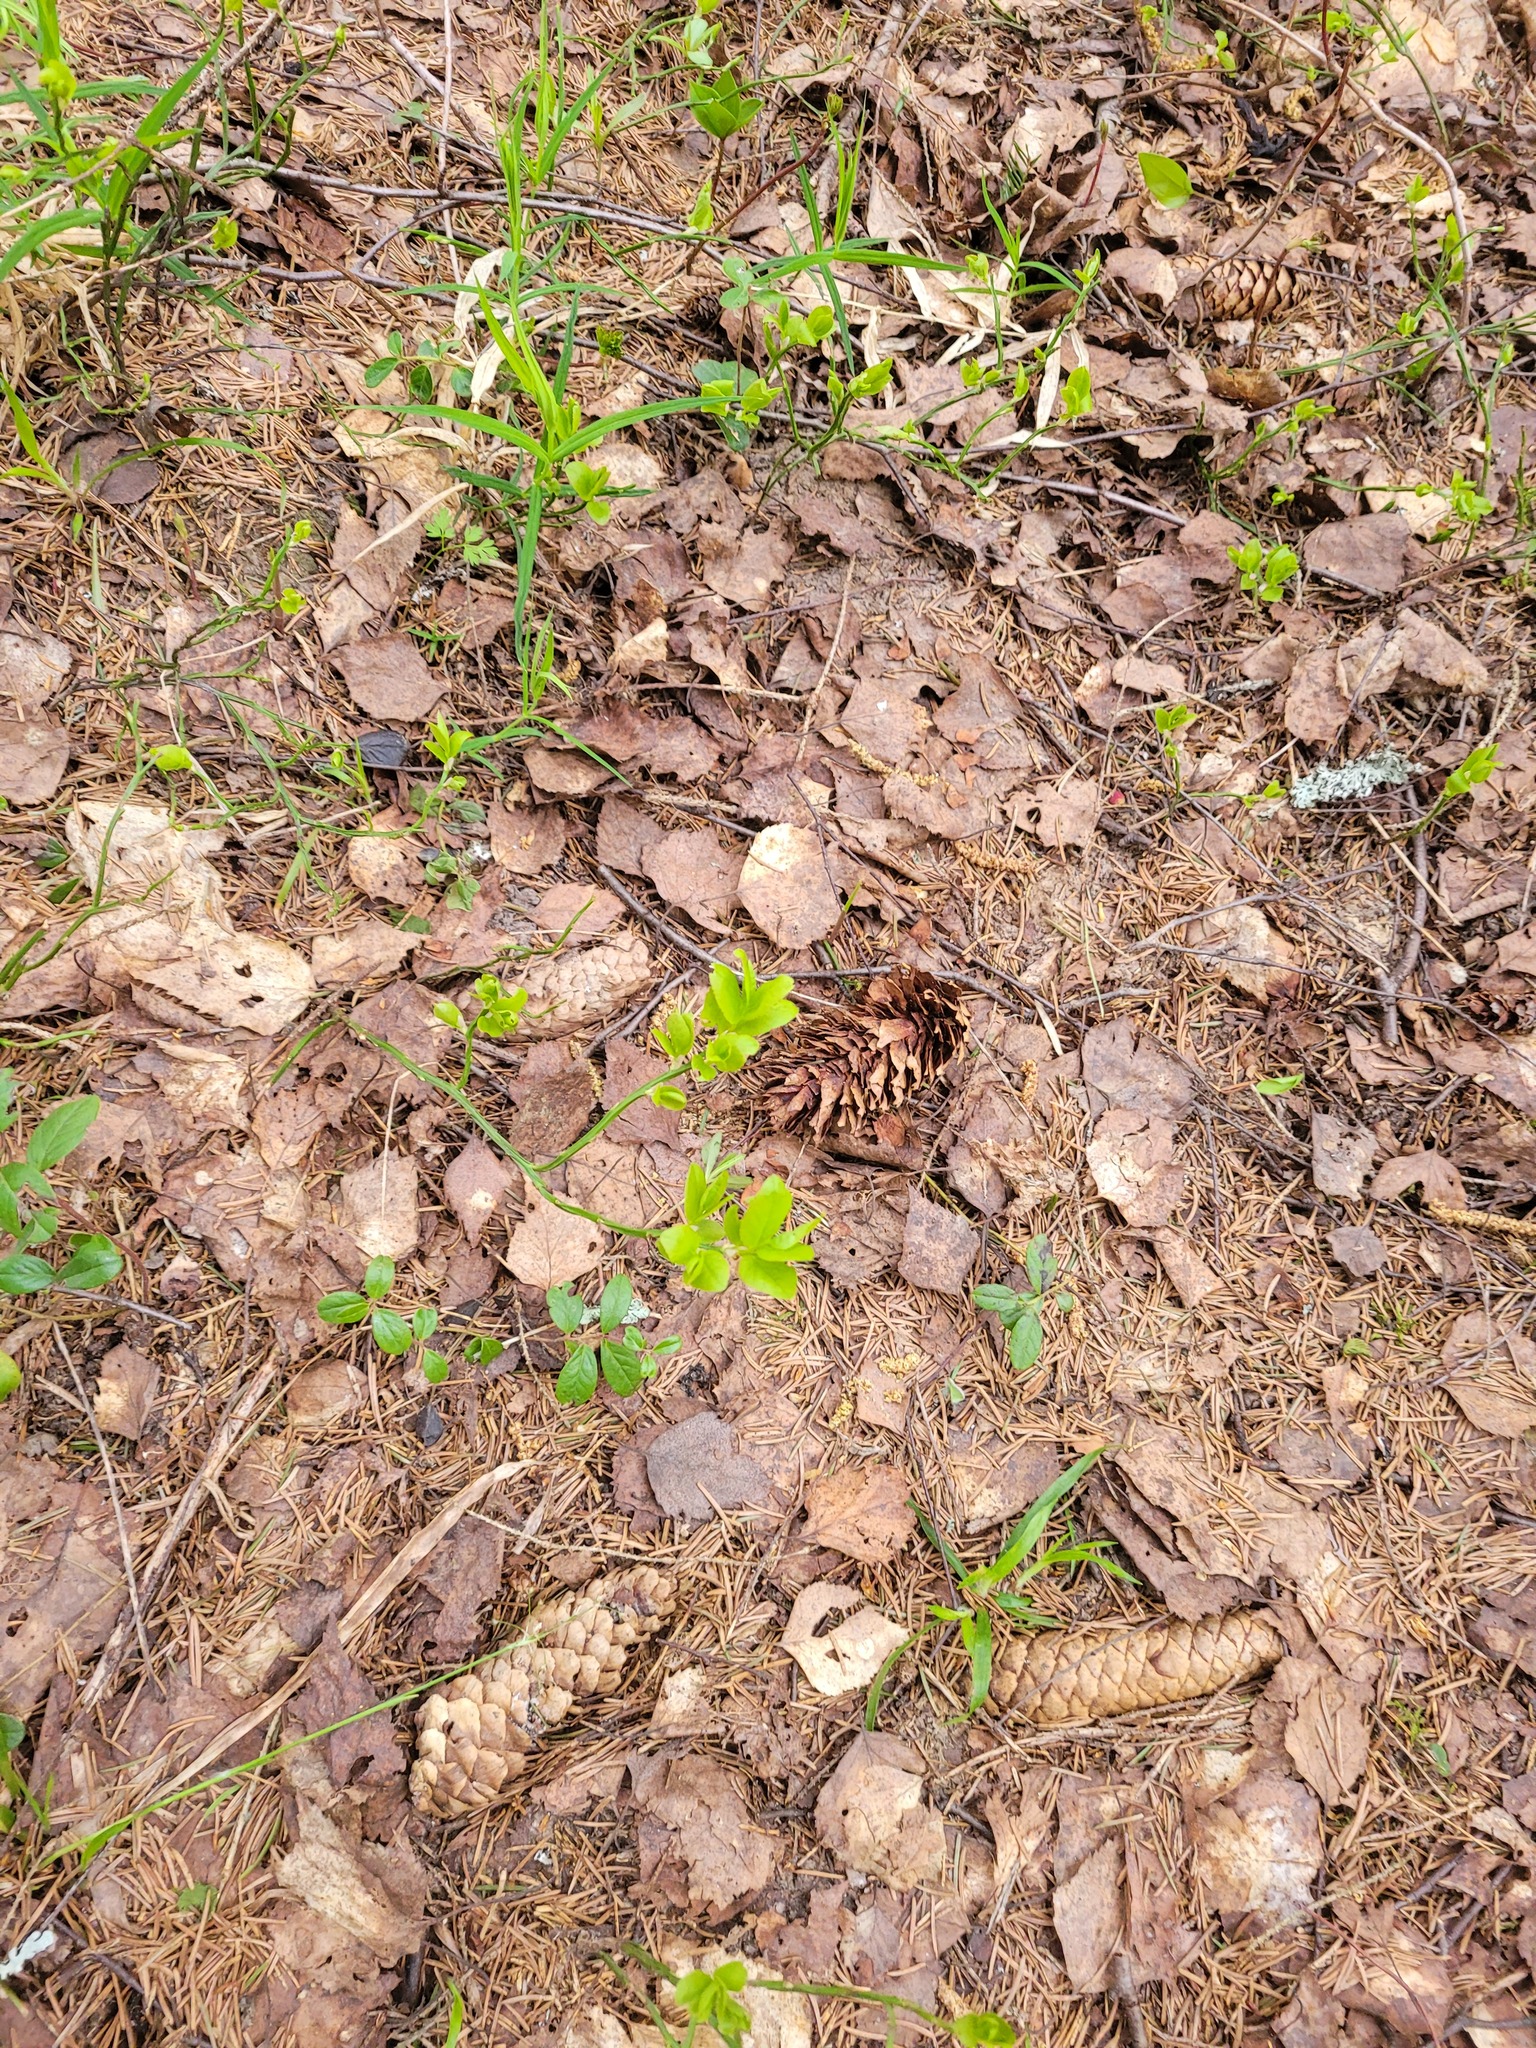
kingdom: Plantae
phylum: Tracheophyta
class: Magnoliopsida
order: Ericales
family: Ericaceae
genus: Vaccinium
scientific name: Vaccinium myrtillus
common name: Bilberry
